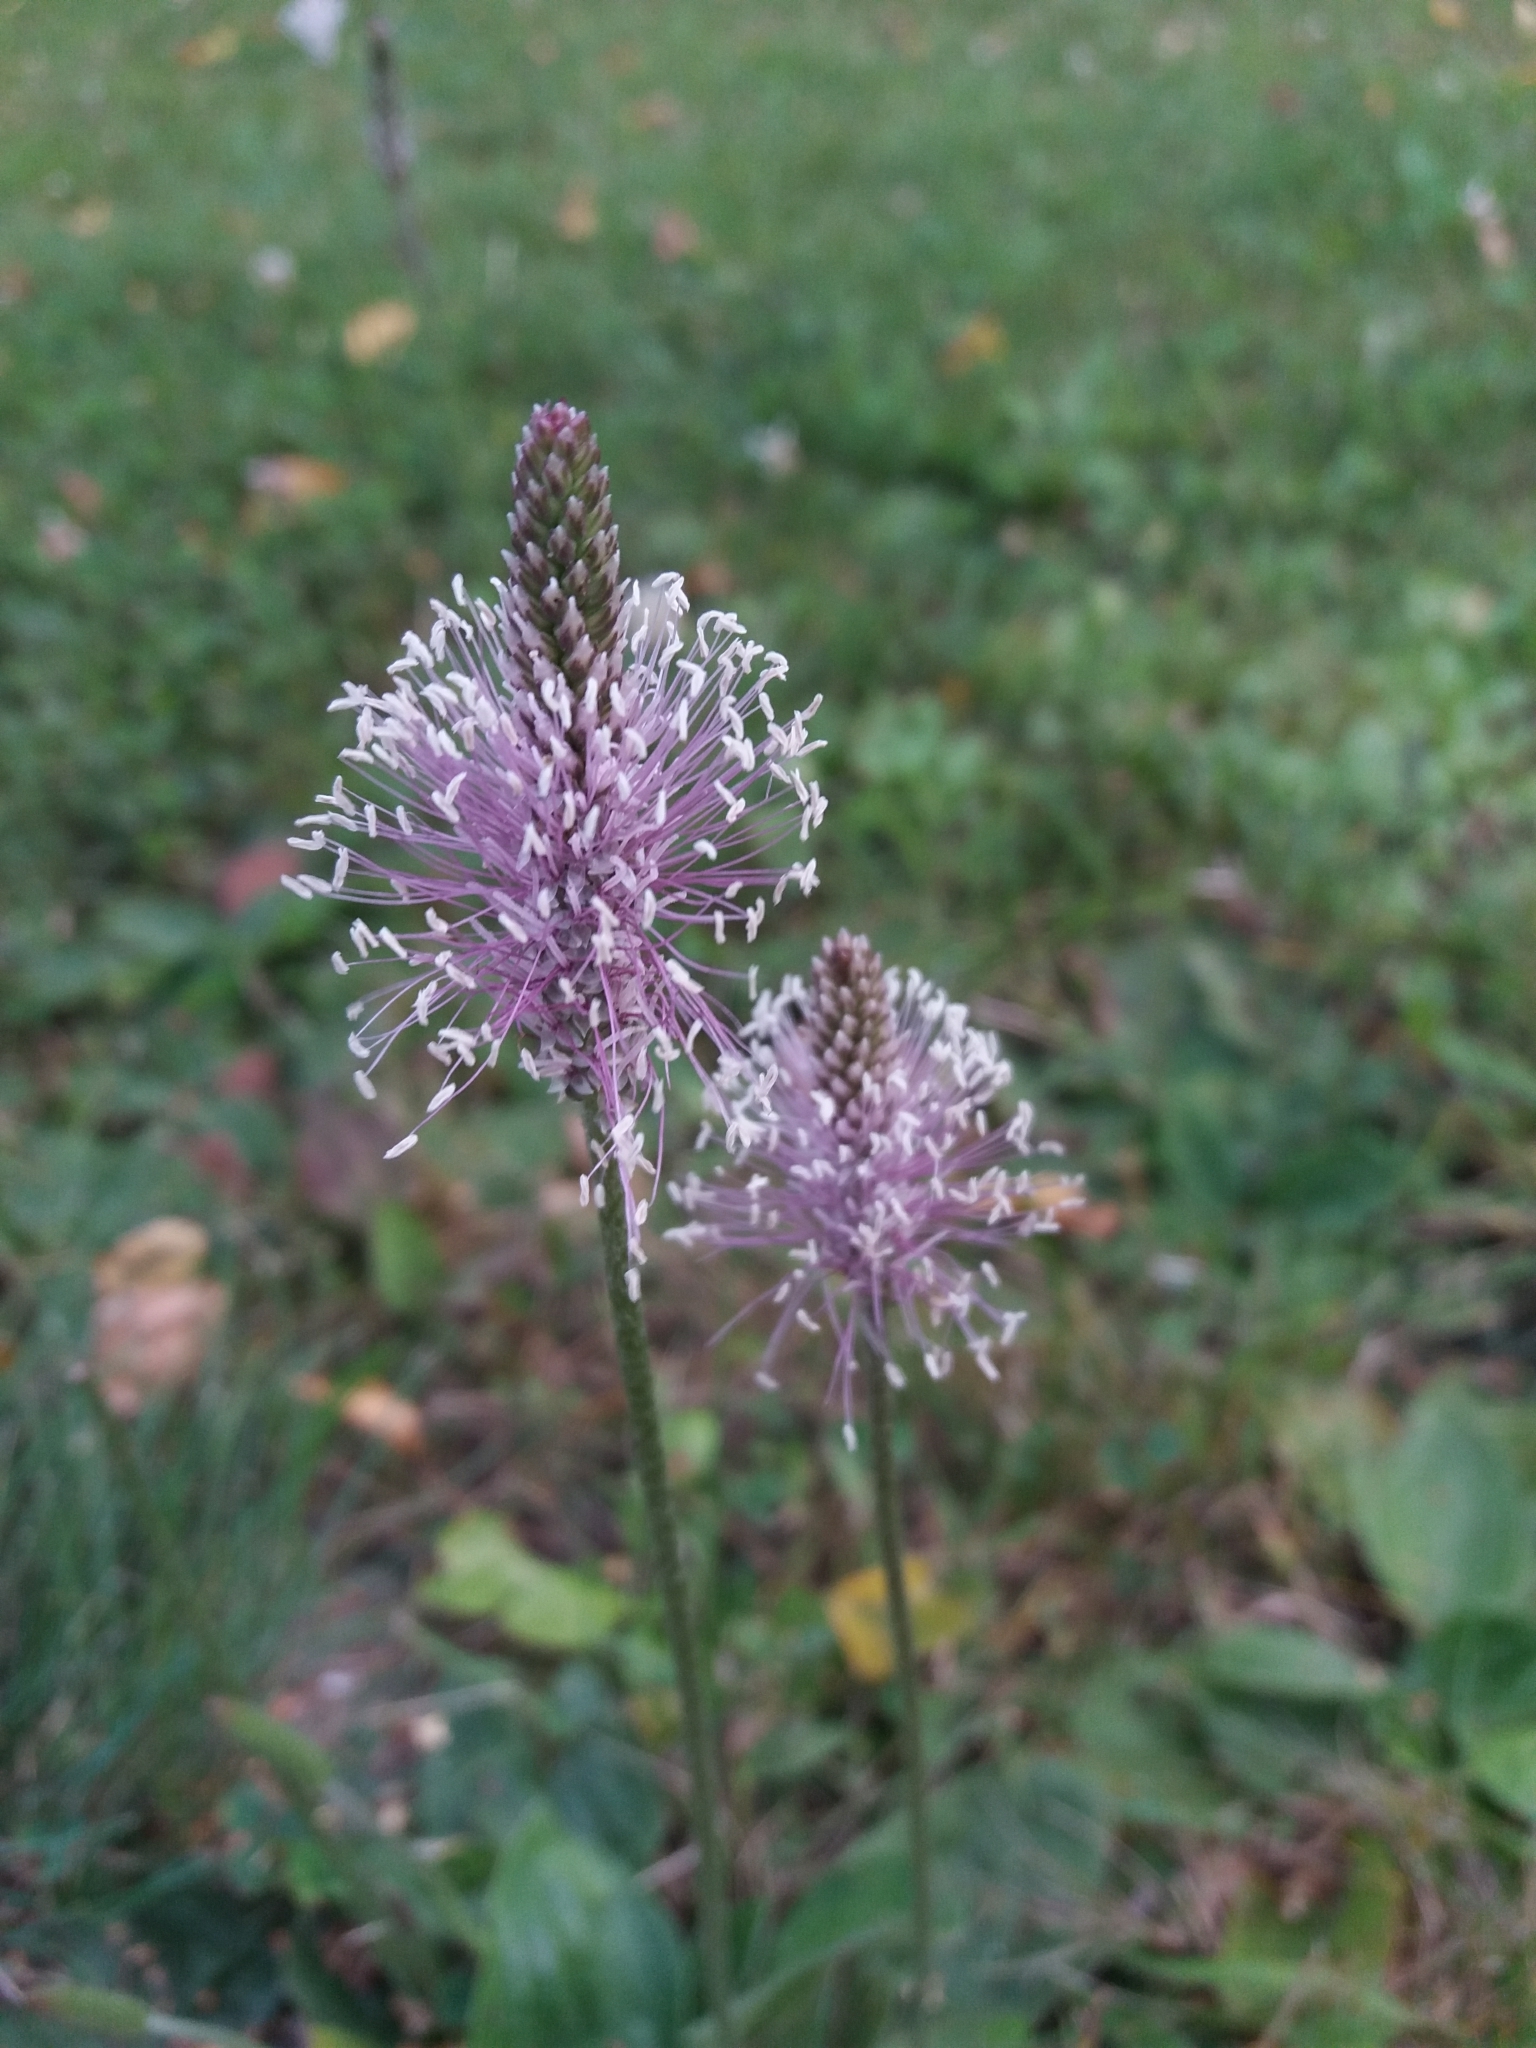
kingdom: Plantae
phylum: Tracheophyta
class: Magnoliopsida
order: Lamiales
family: Plantaginaceae
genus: Plantago
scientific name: Plantago media
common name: Hoary plantain
